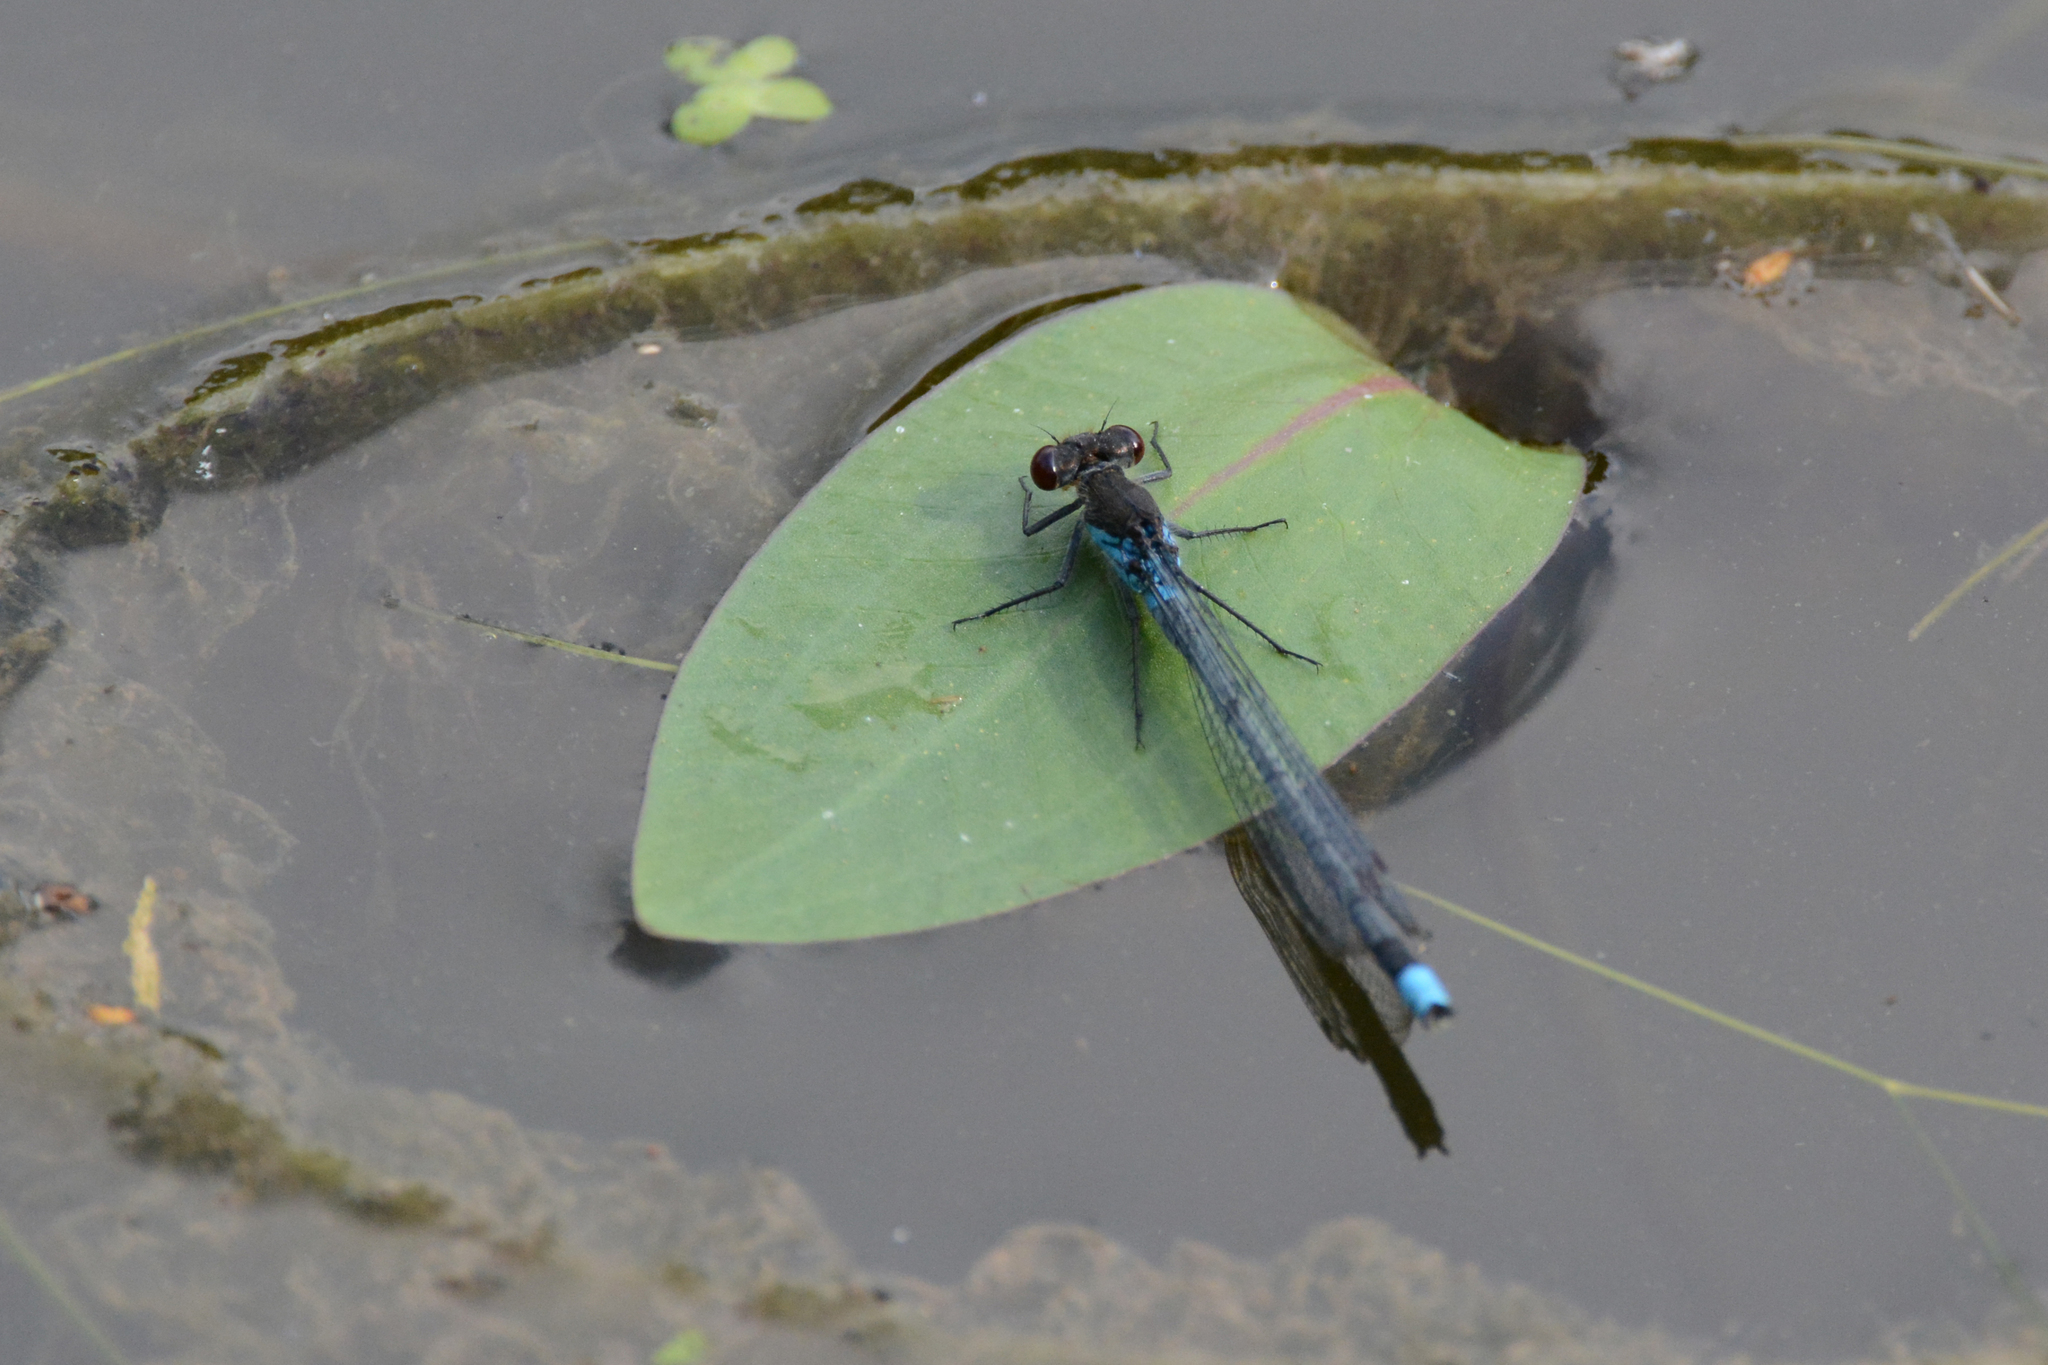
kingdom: Animalia
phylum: Arthropoda
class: Insecta
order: Odonata
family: Coenagrionidae
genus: Erythromma
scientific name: Erythromma najas
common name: Red-eyed damselfly
